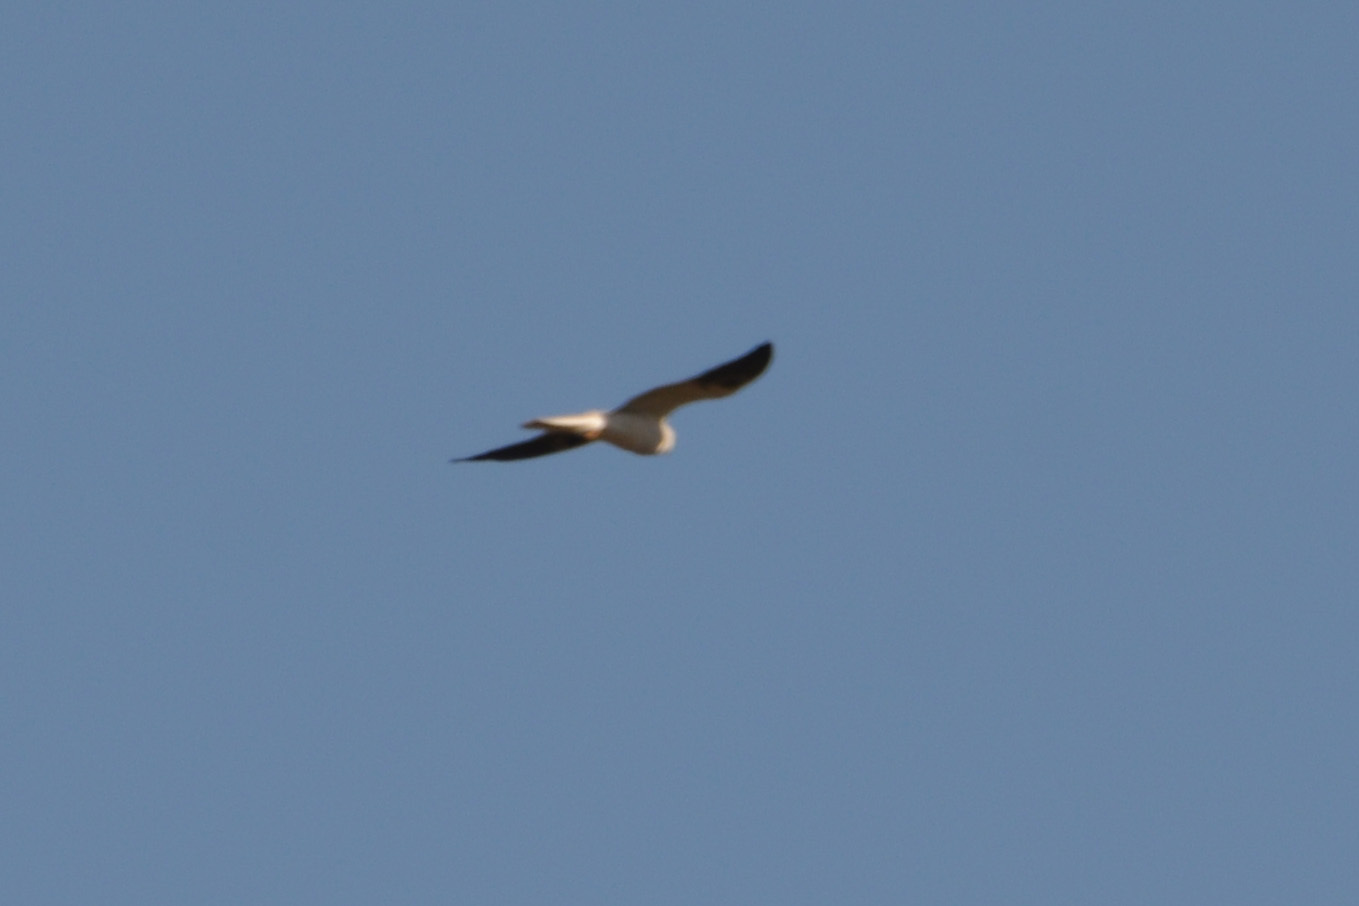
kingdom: Animalia
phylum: Chordata
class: Aves
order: Accipitriformes
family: Accipitridae
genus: Elanus
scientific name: Elanus leucurus
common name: White-tailed kite
